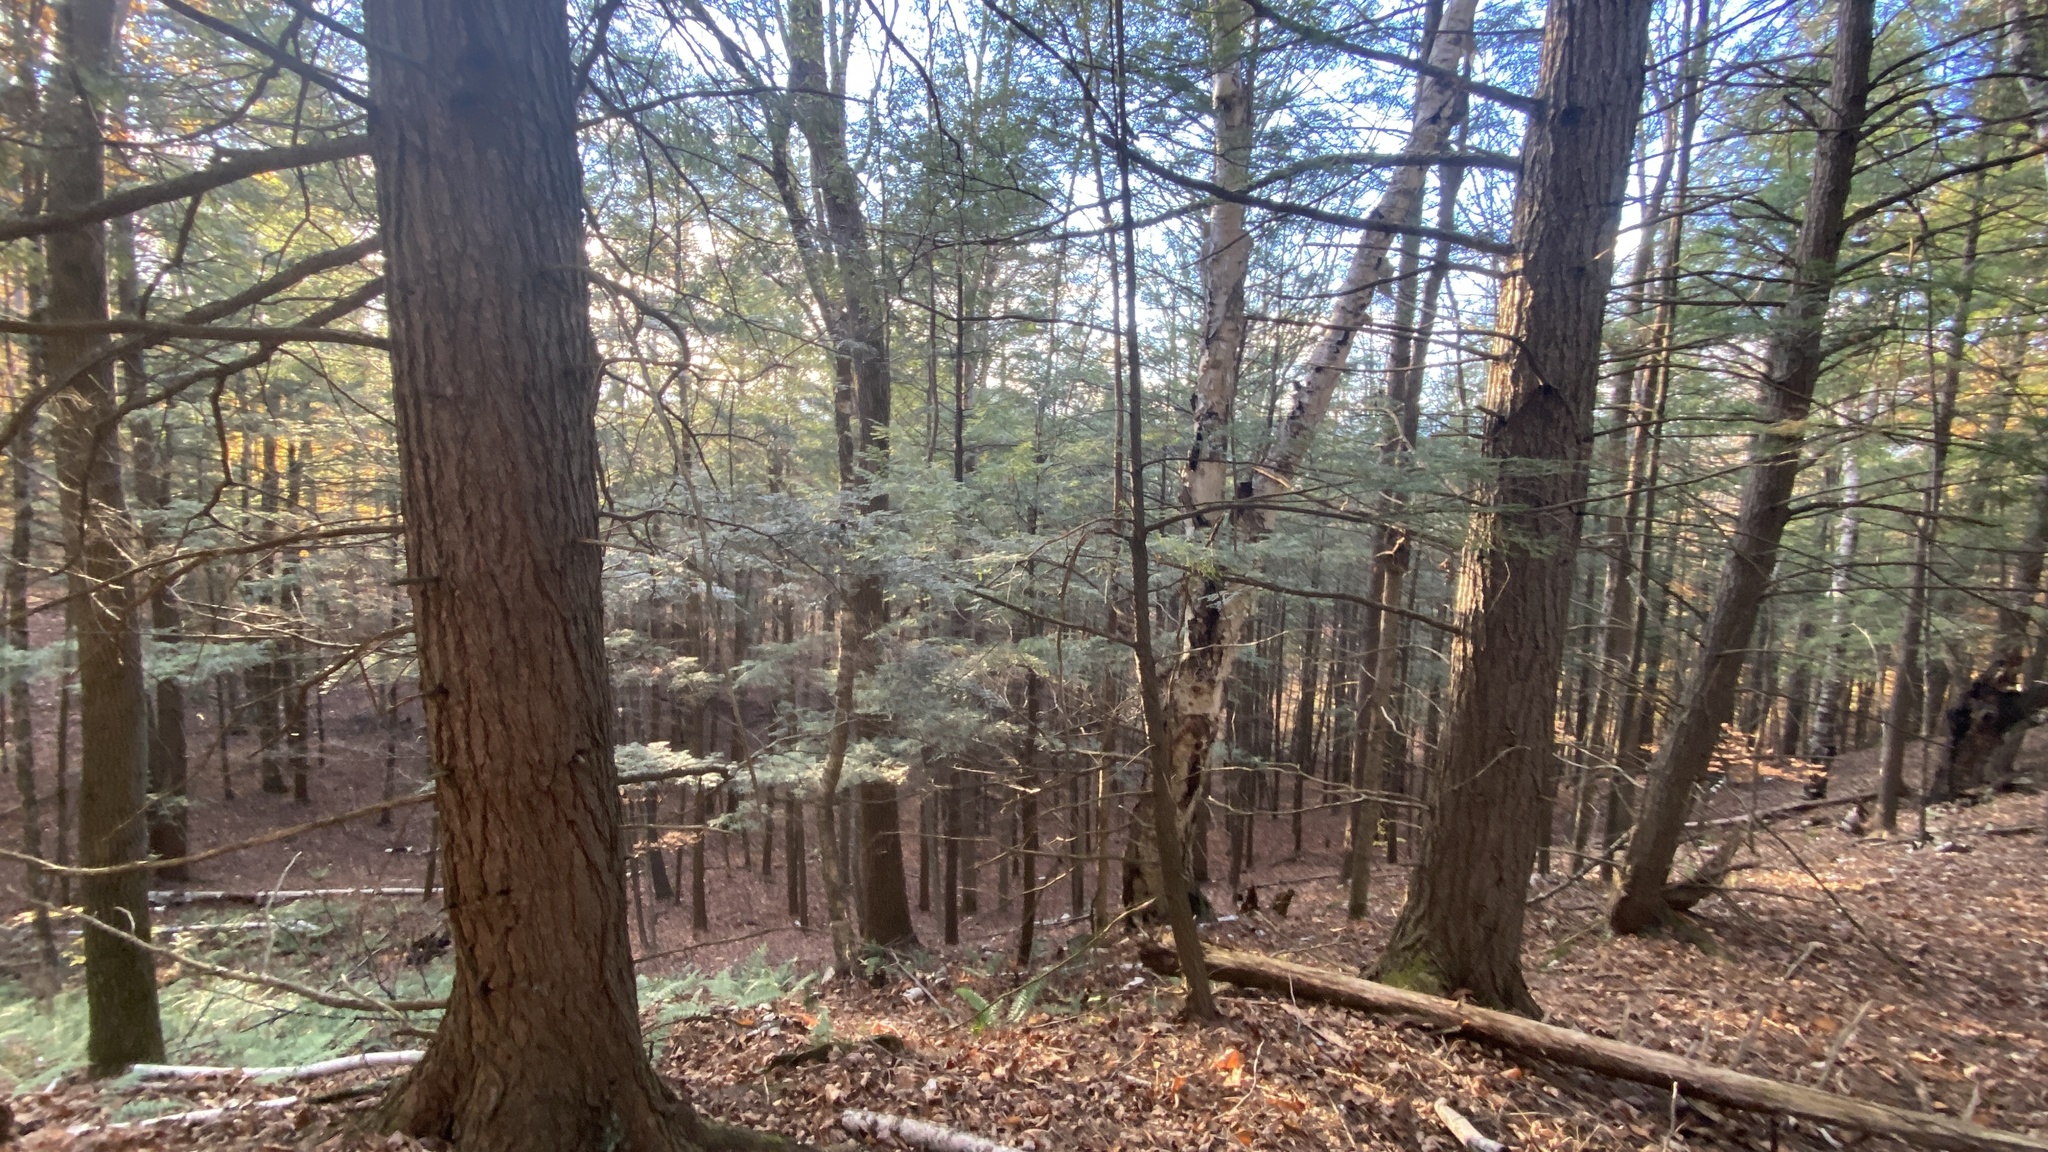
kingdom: Plantae
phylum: Tracheophyta
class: Pinopsida
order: Pinales
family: Pinaceae
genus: Tsuga
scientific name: Tsuga canadensis
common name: Eastern hemlock
